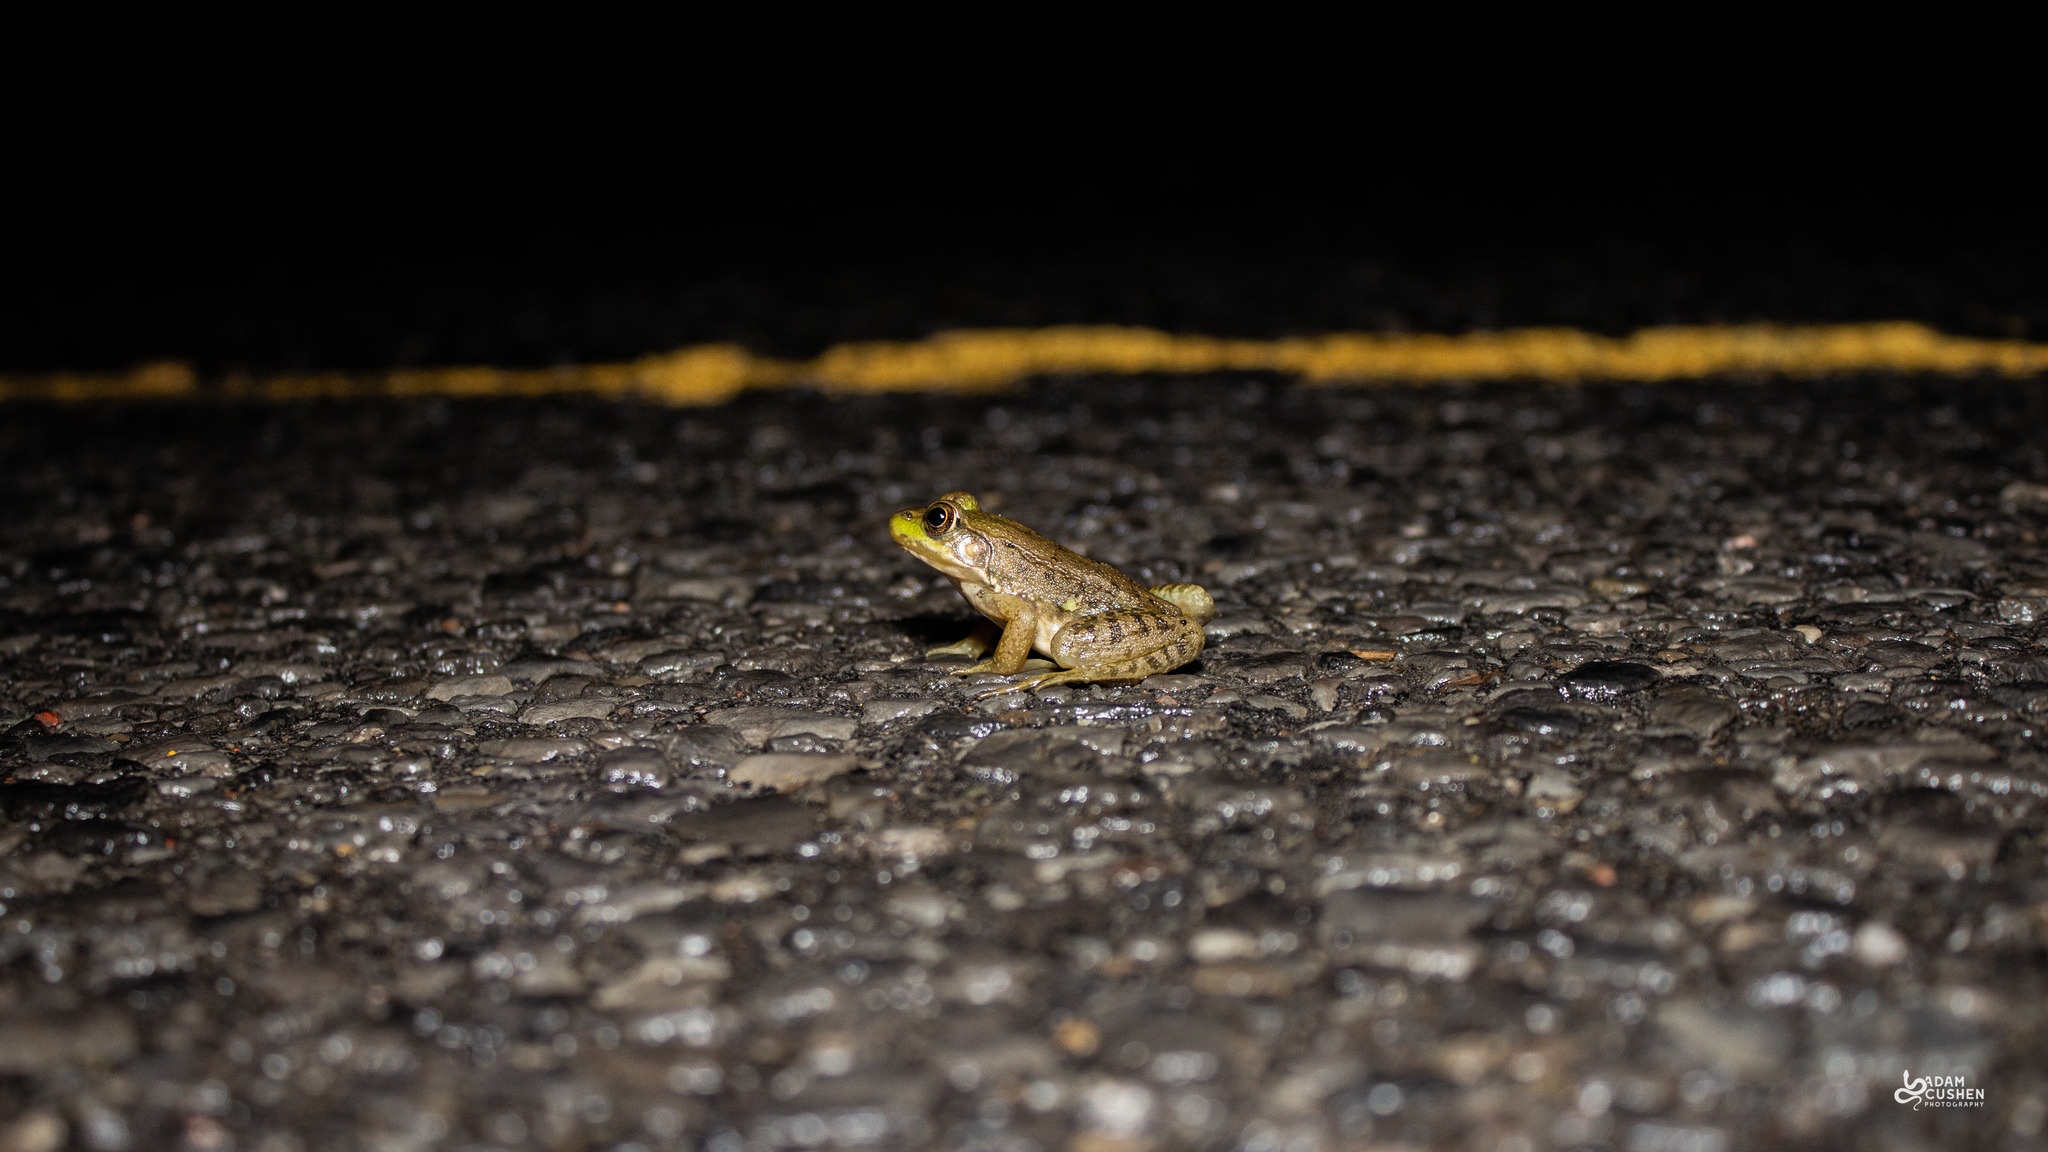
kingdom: Animalia
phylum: Chordata
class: Amphibia
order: Anura
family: Ranidae
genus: Lithobates
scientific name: Lithobates clamitans
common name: Green frog
